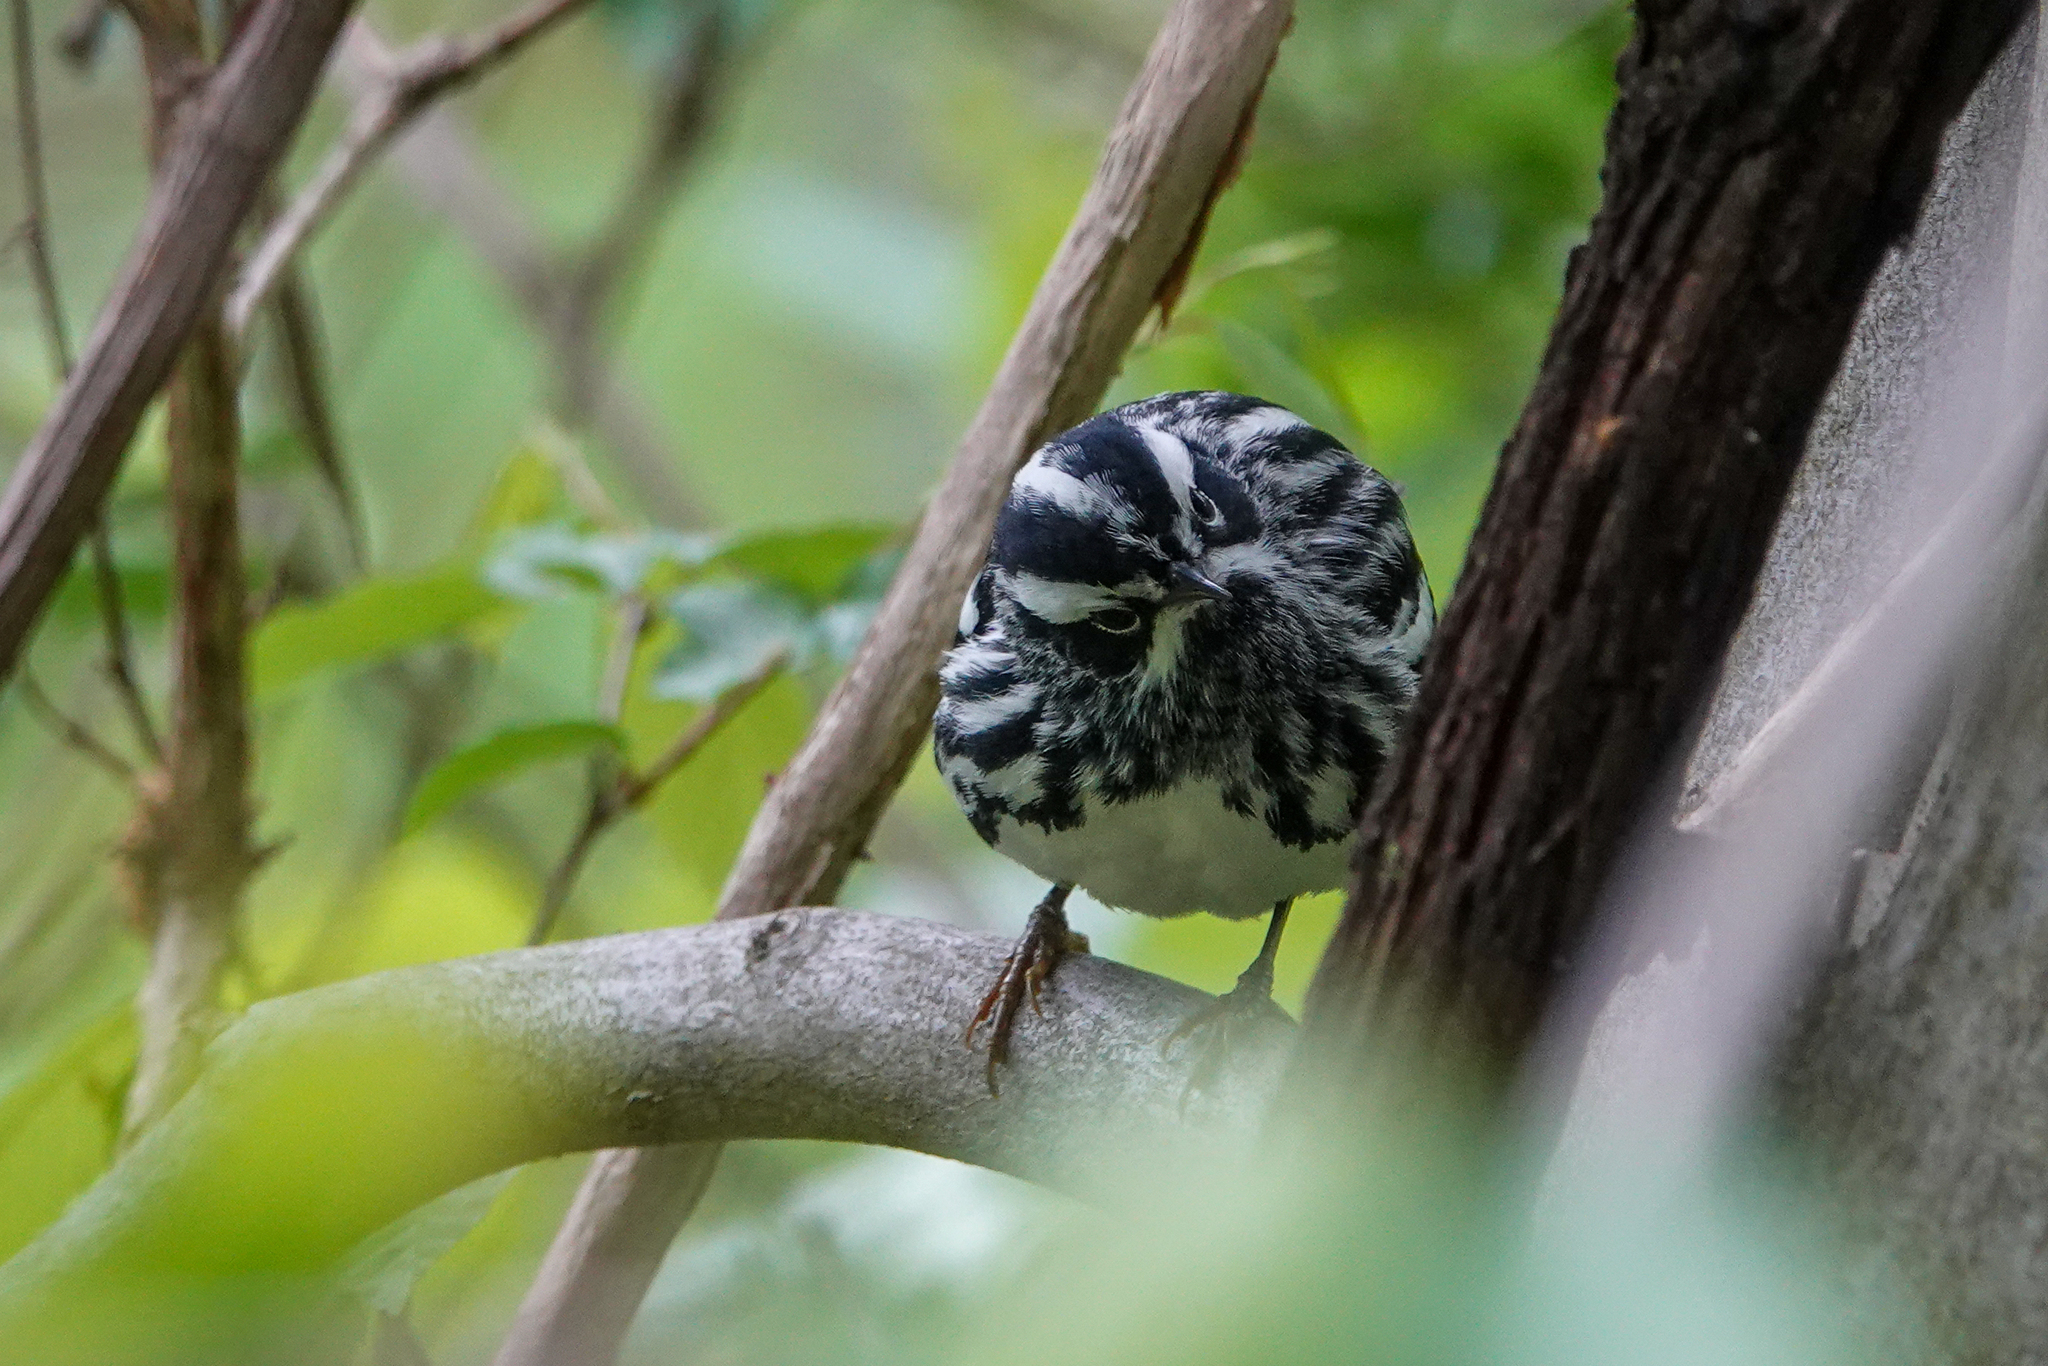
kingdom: Animalia
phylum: Chordata
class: Aves
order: Passeriformes
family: Parulidae
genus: Mniotilta
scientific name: Mniotilta varia
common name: Black-and-white warbler
